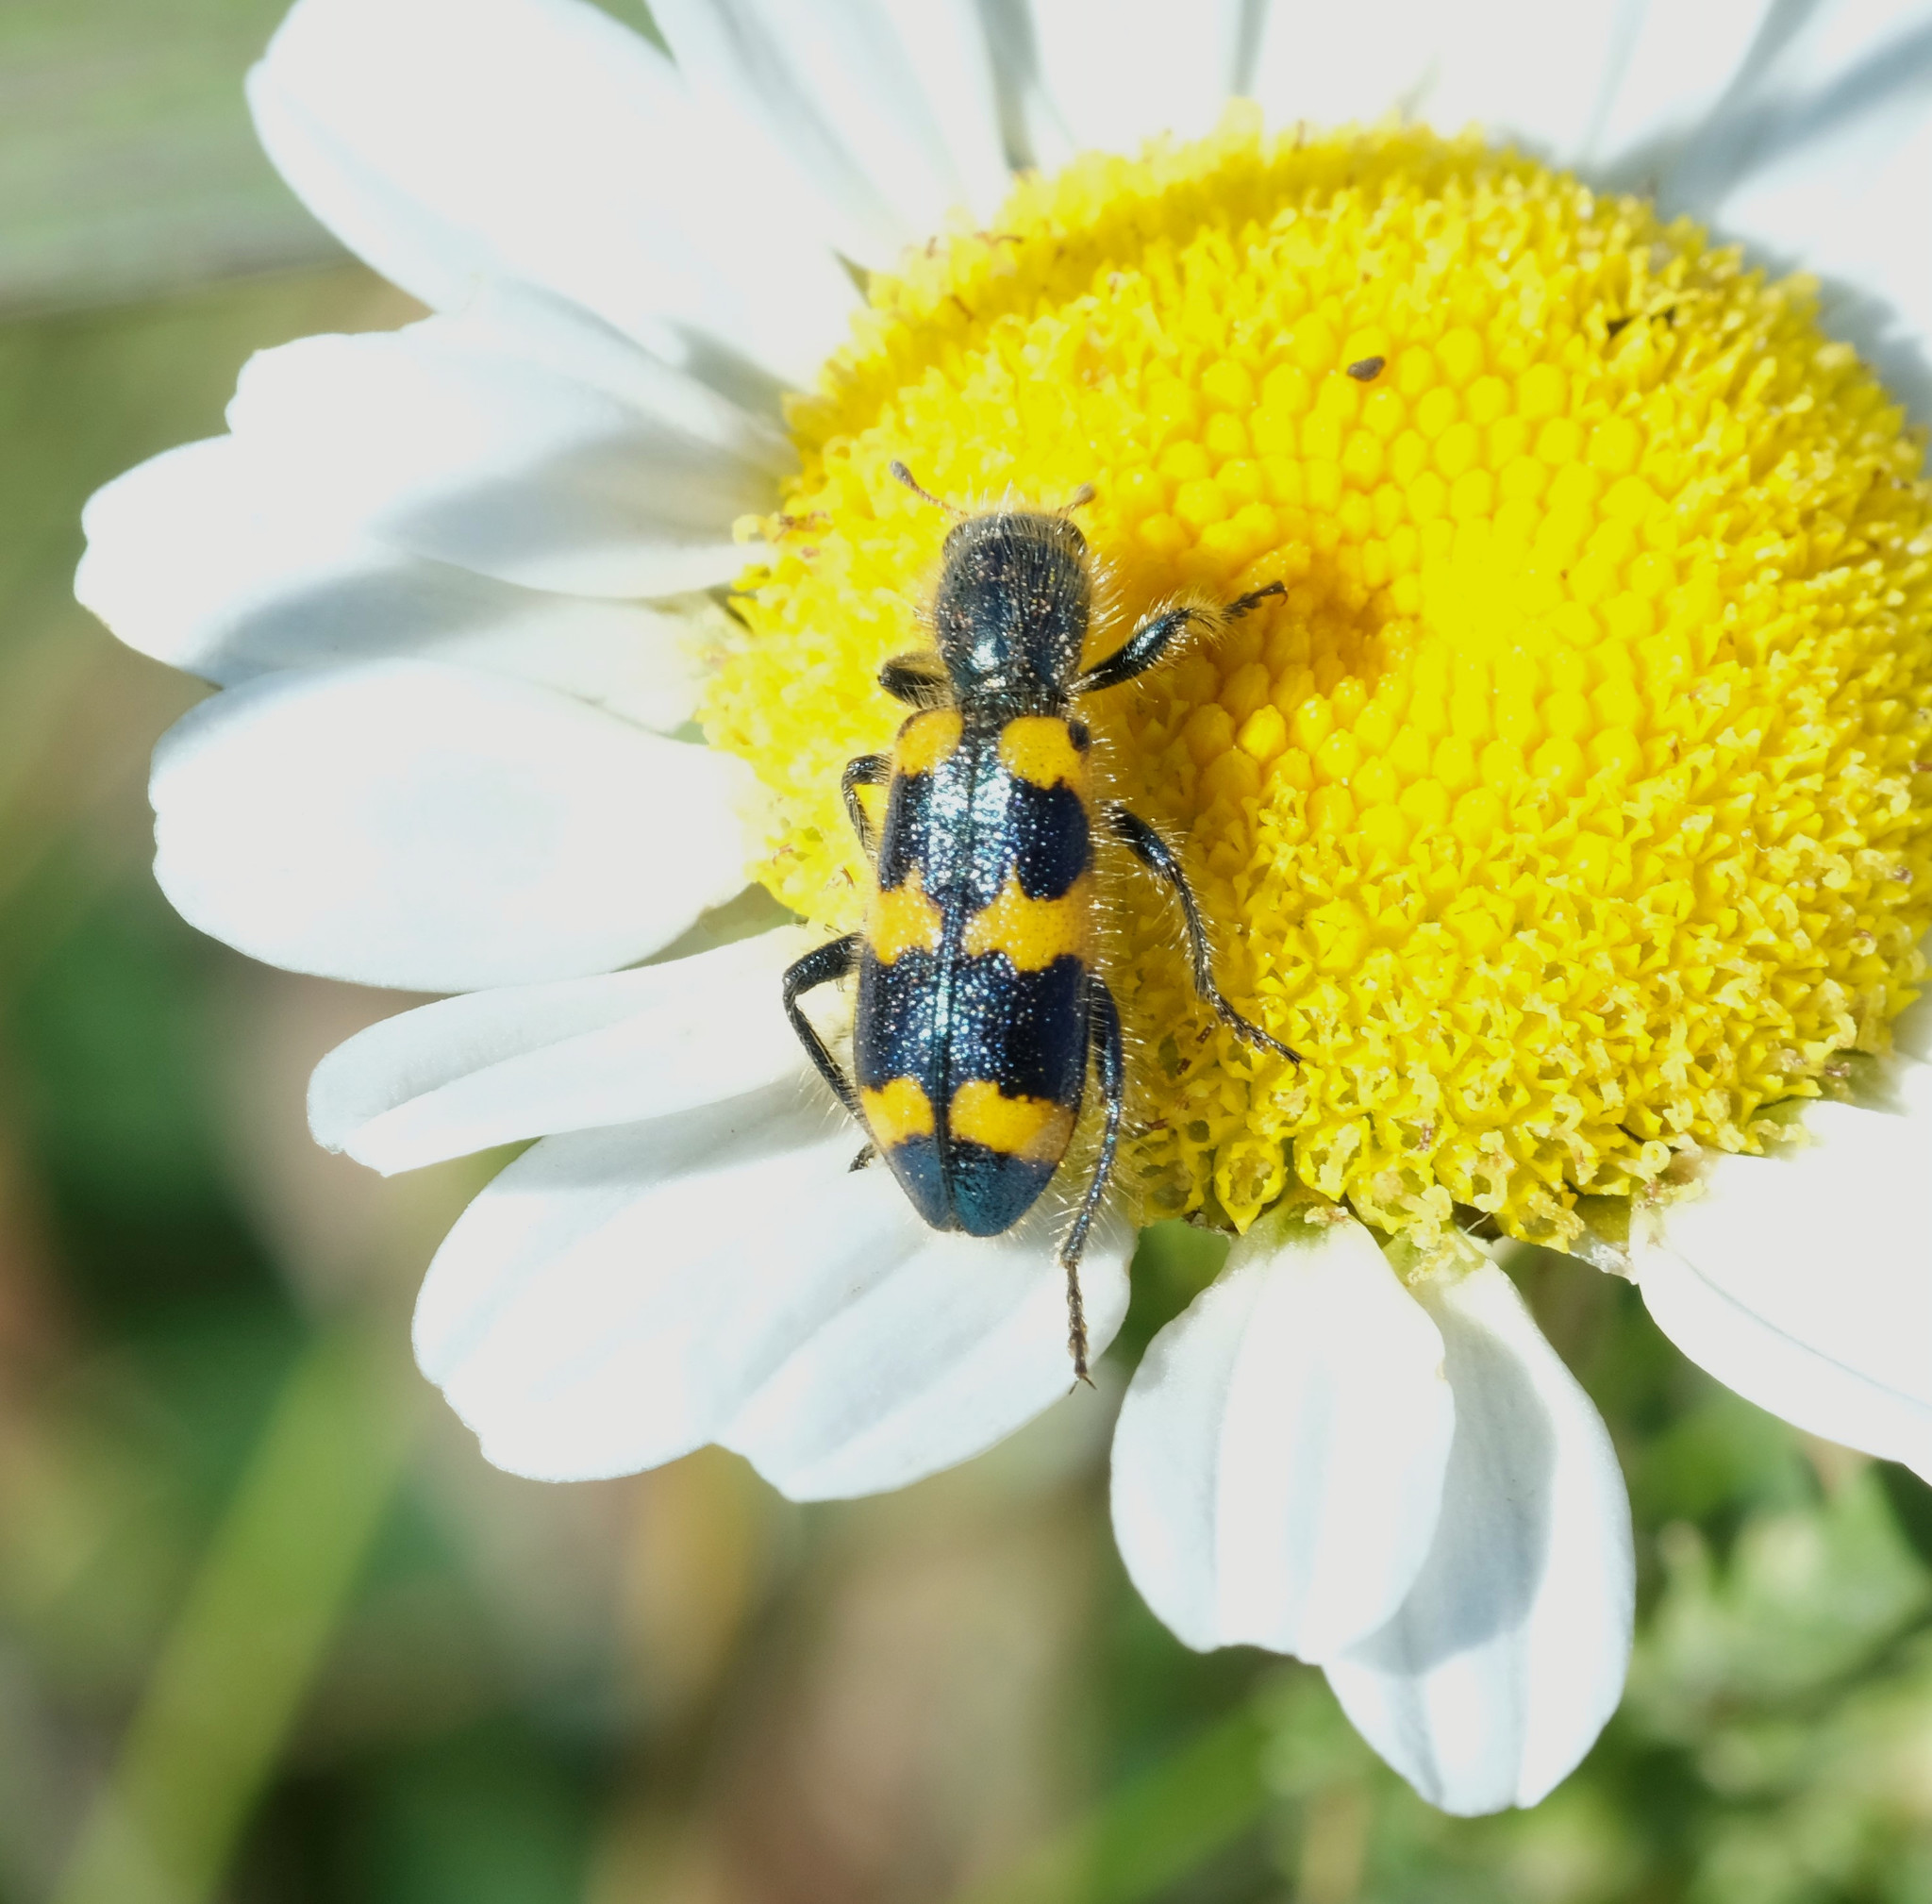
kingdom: Animalia
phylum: Arthropoda
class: Insecta
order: Coleoptera
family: Cleridae
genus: Trichodes
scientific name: Trichodes nutalli
